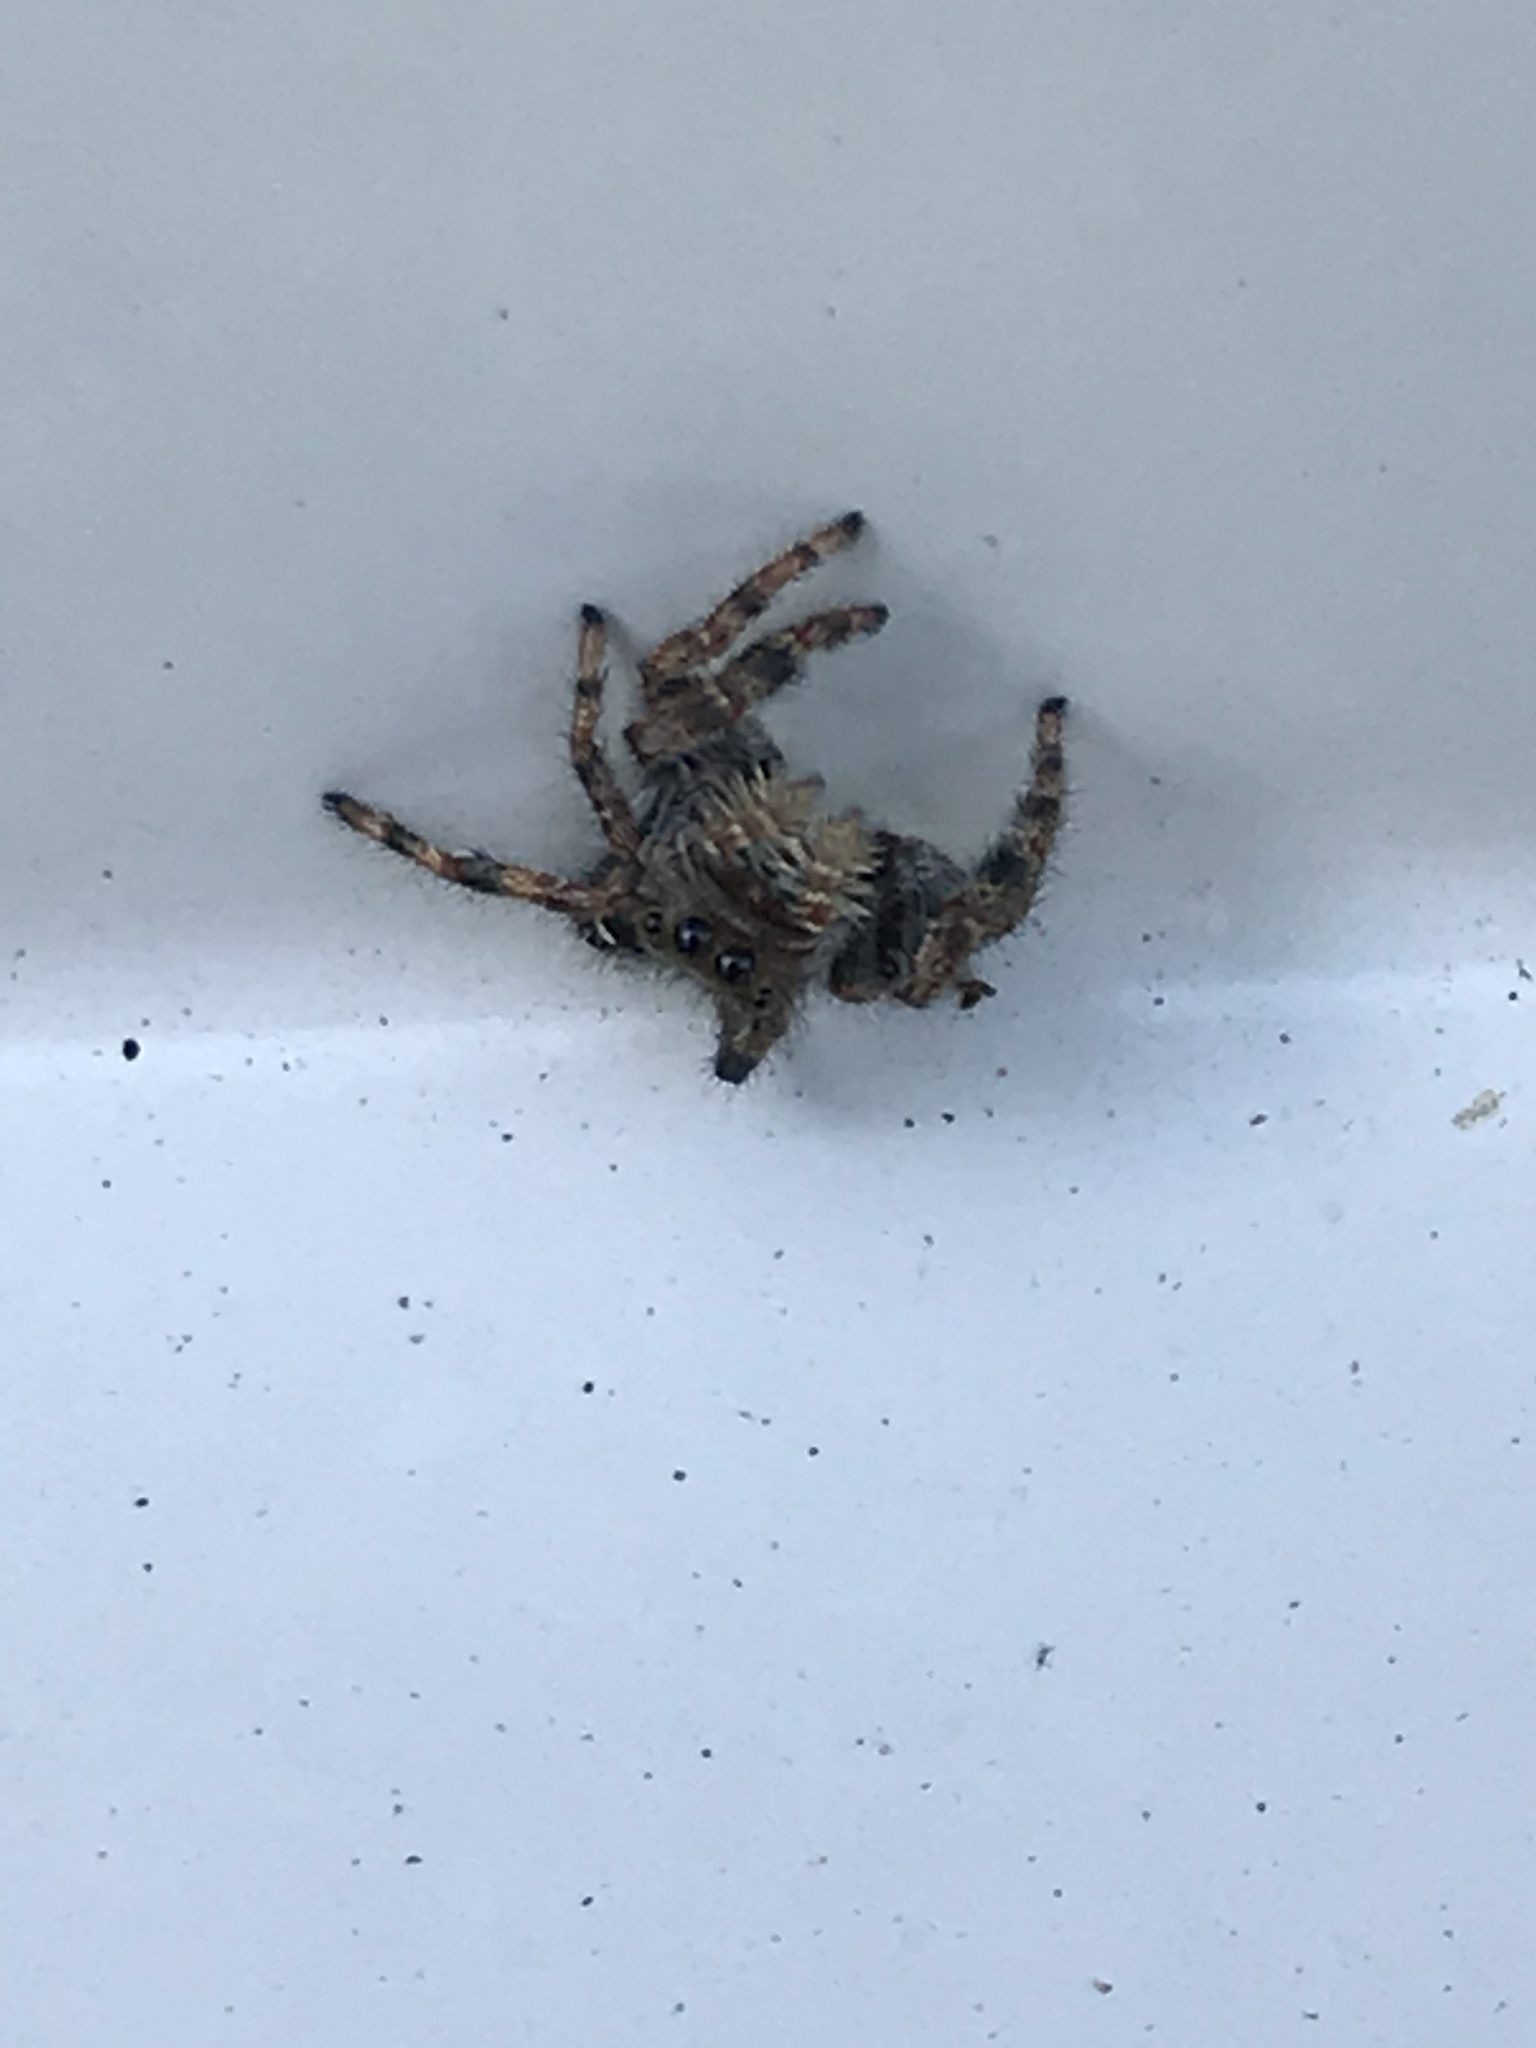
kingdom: Animalia
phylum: Arthropoda
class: Arachnida
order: Araneae
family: Salticidae
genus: Phidippus
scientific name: Phidippus audax
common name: Bold jumper
